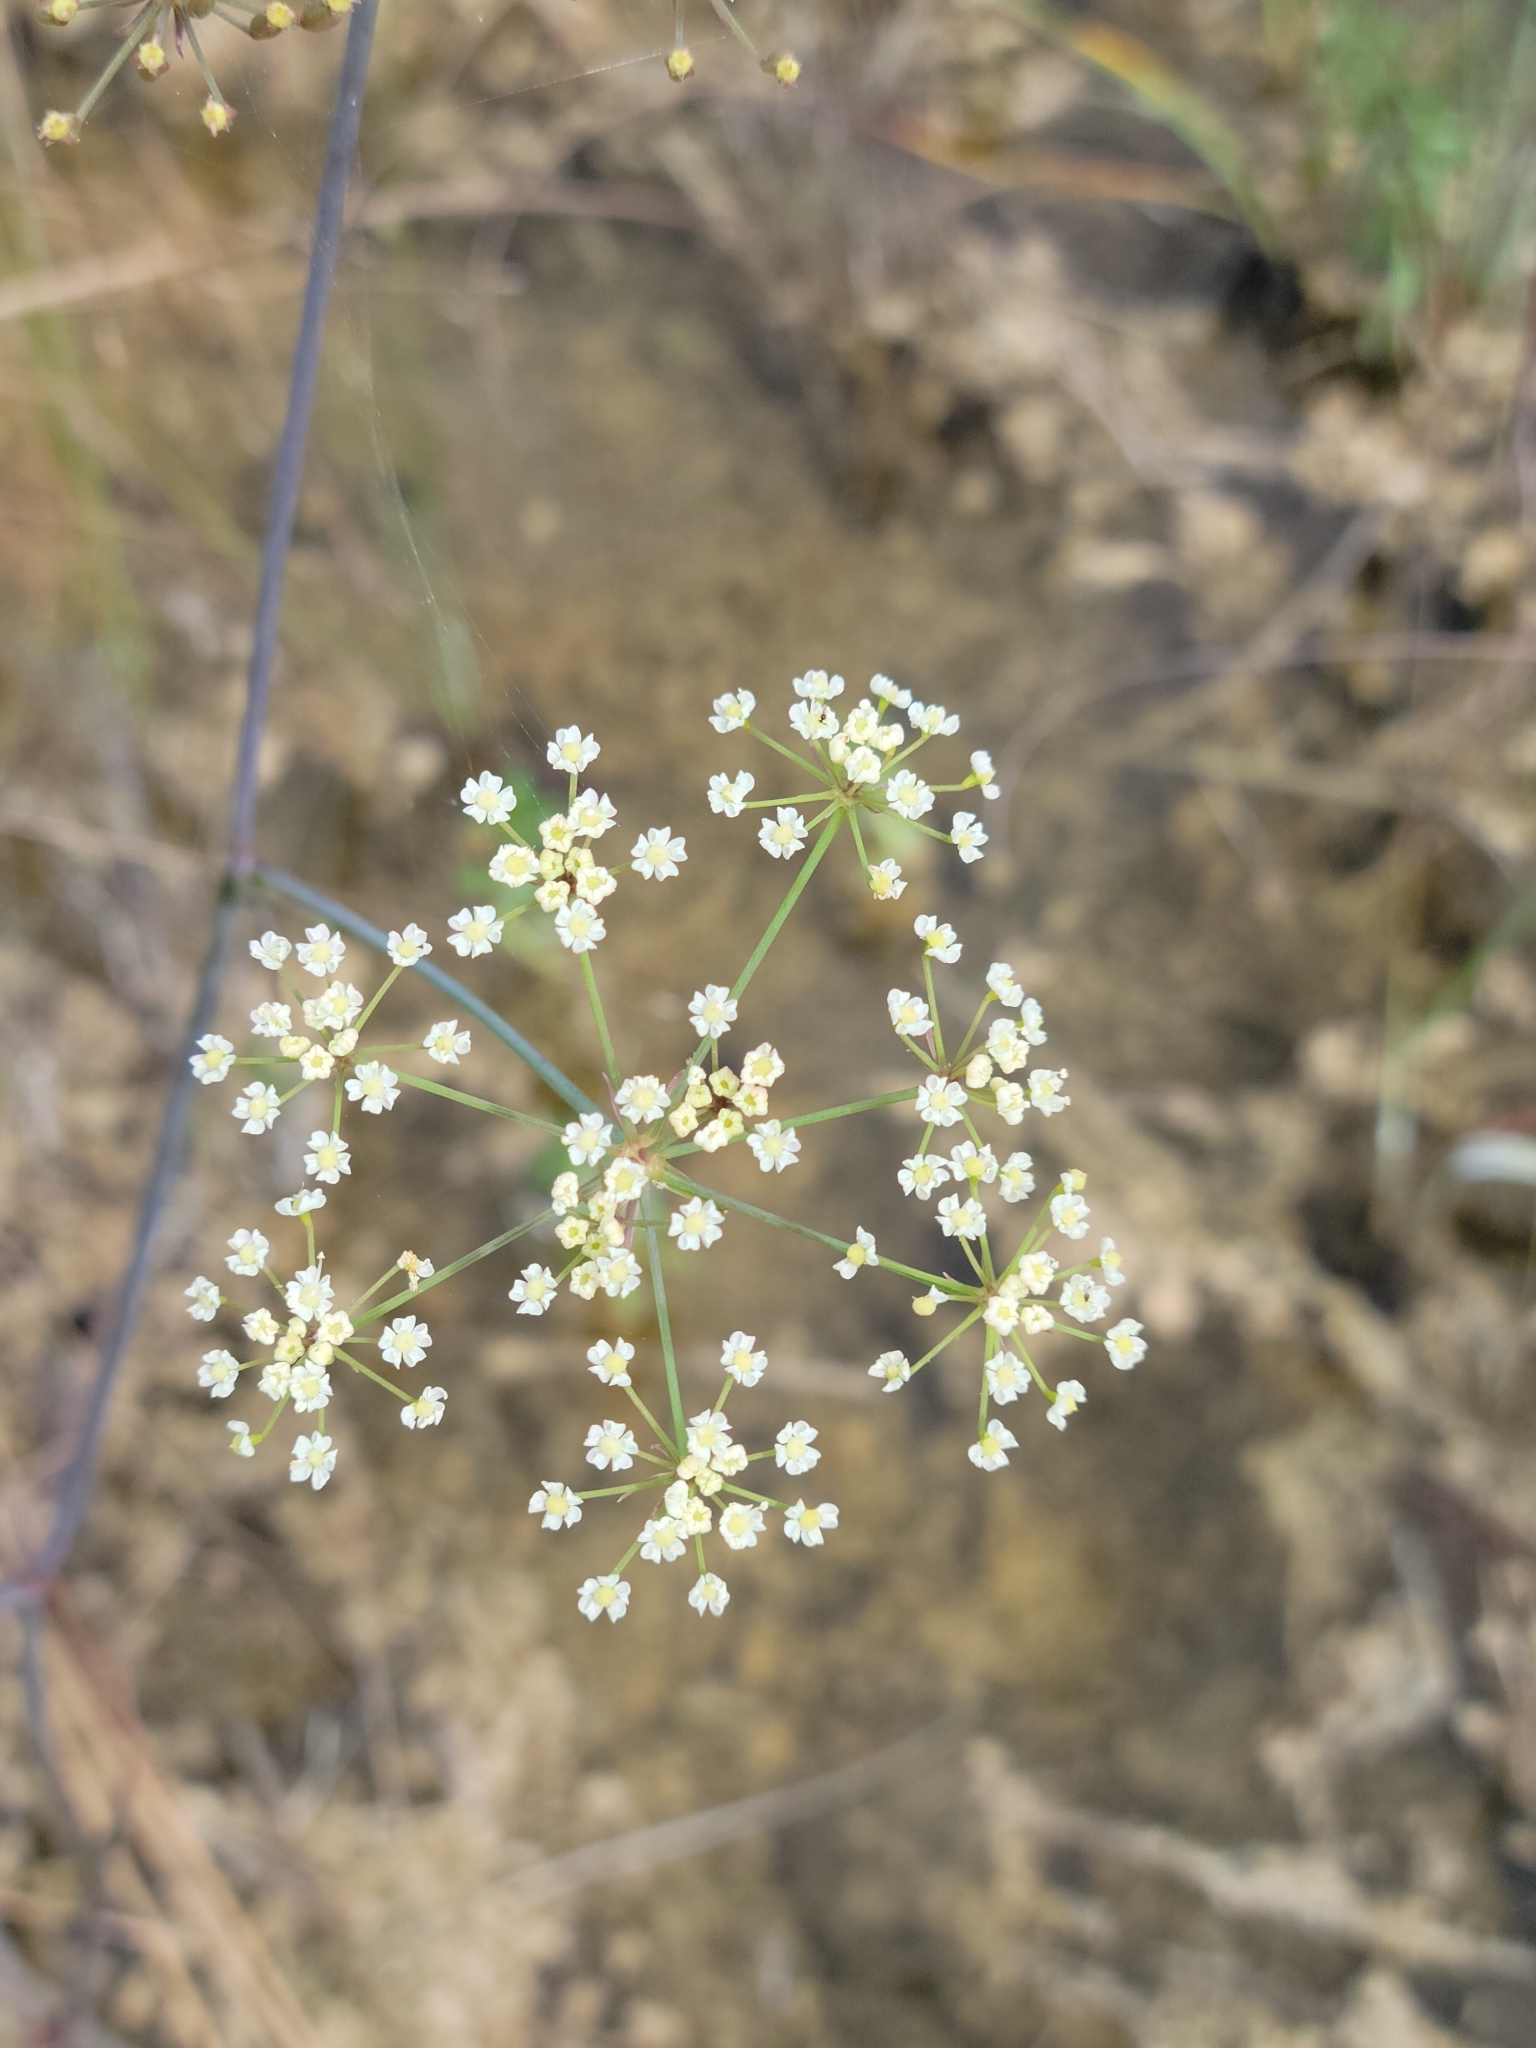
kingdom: Plantae
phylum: Tracheophyta
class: Magnoliopsida
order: Apiales
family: Apiaceae
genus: Tiedemannia
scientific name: Tiedemannia filiformis
